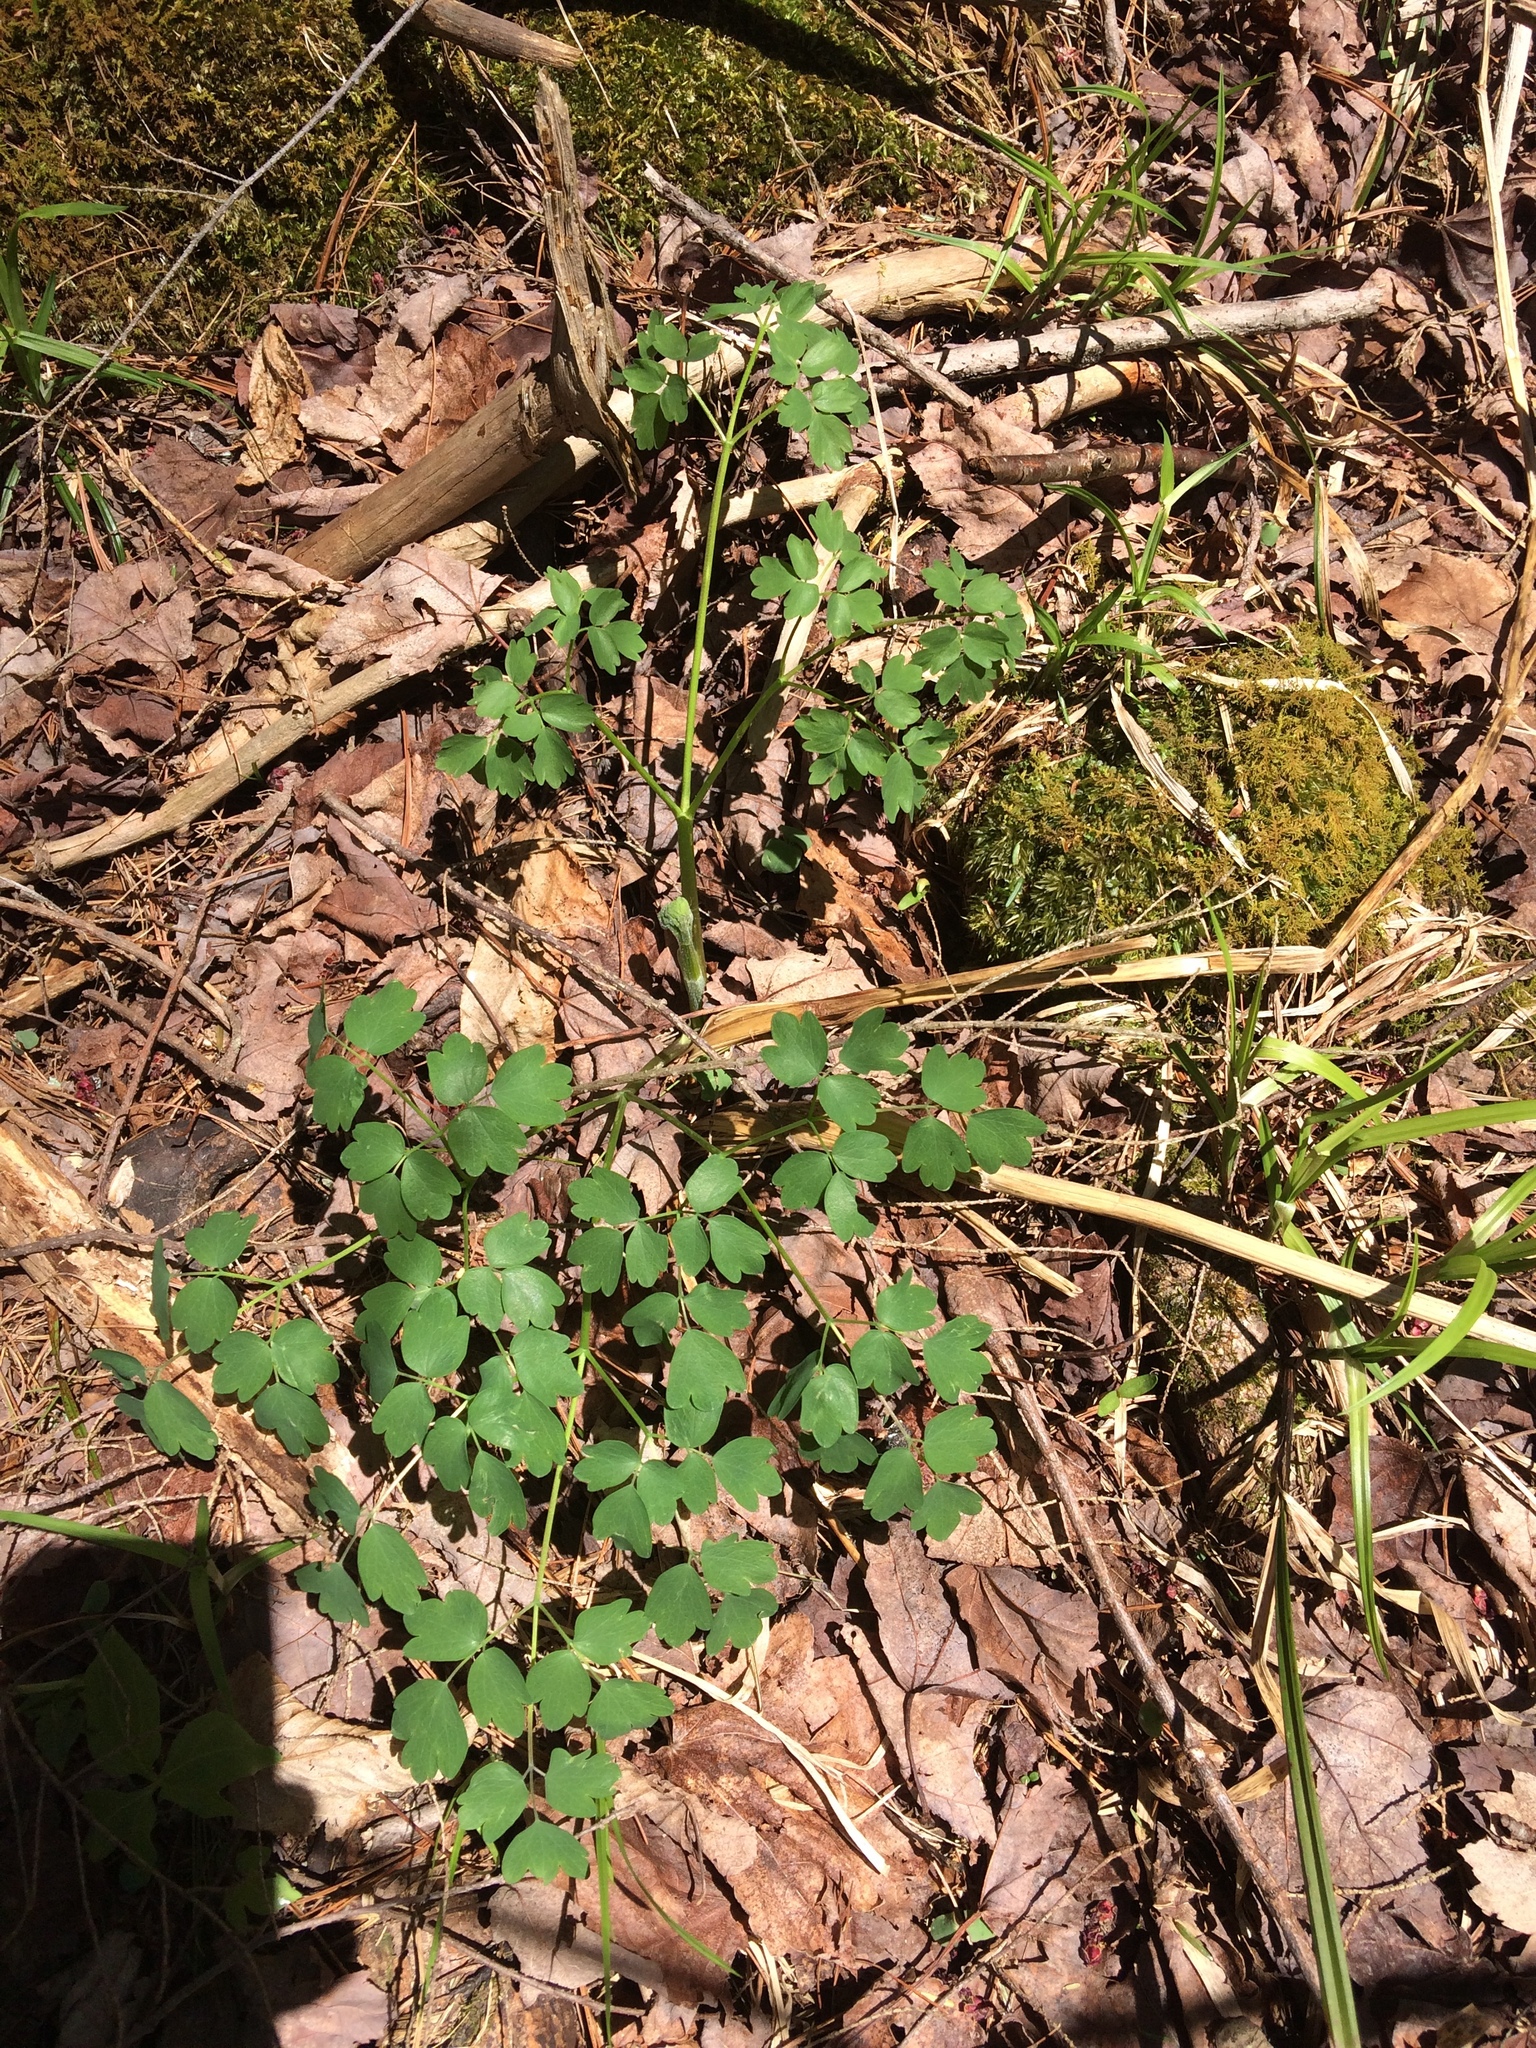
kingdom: Plantae
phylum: Tracheophyta
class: Magnoliopsida
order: Ranunculales
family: Ranunculaceae
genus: Thalictrum
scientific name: Thalictrum pubescens
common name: King-of-the-meadow
